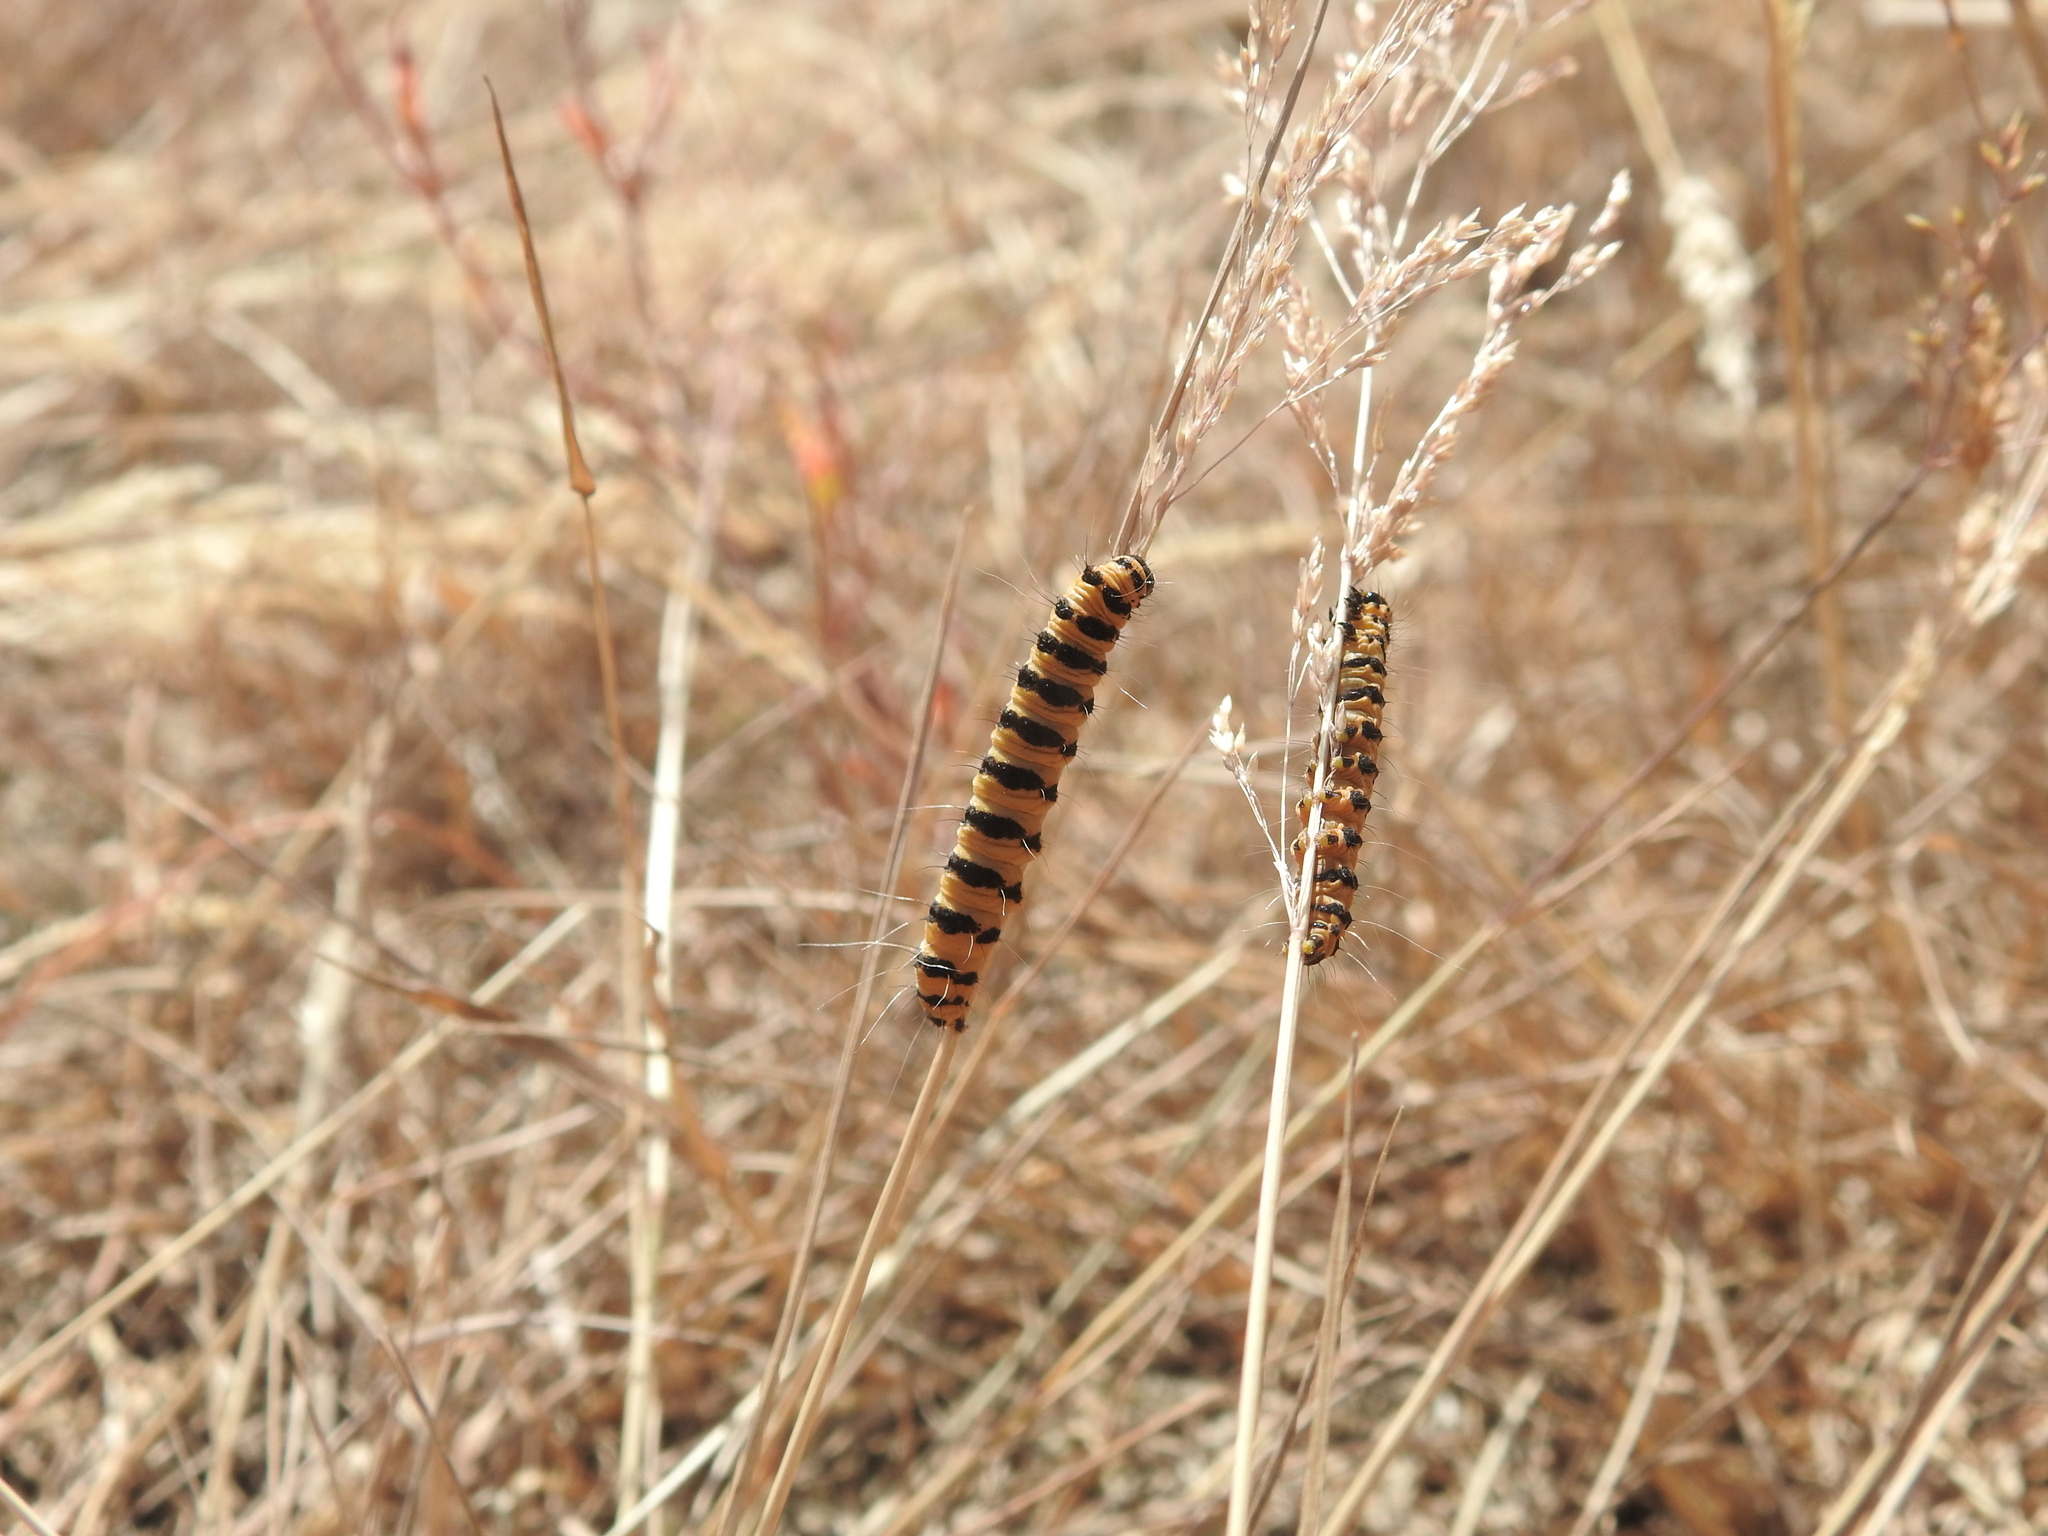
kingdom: Animalia
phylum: Arthropoda
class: Insecta
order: Lepidoptera
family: Erebidae
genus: Tyria
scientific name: Tyria jacobaeae
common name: Cinnabar
